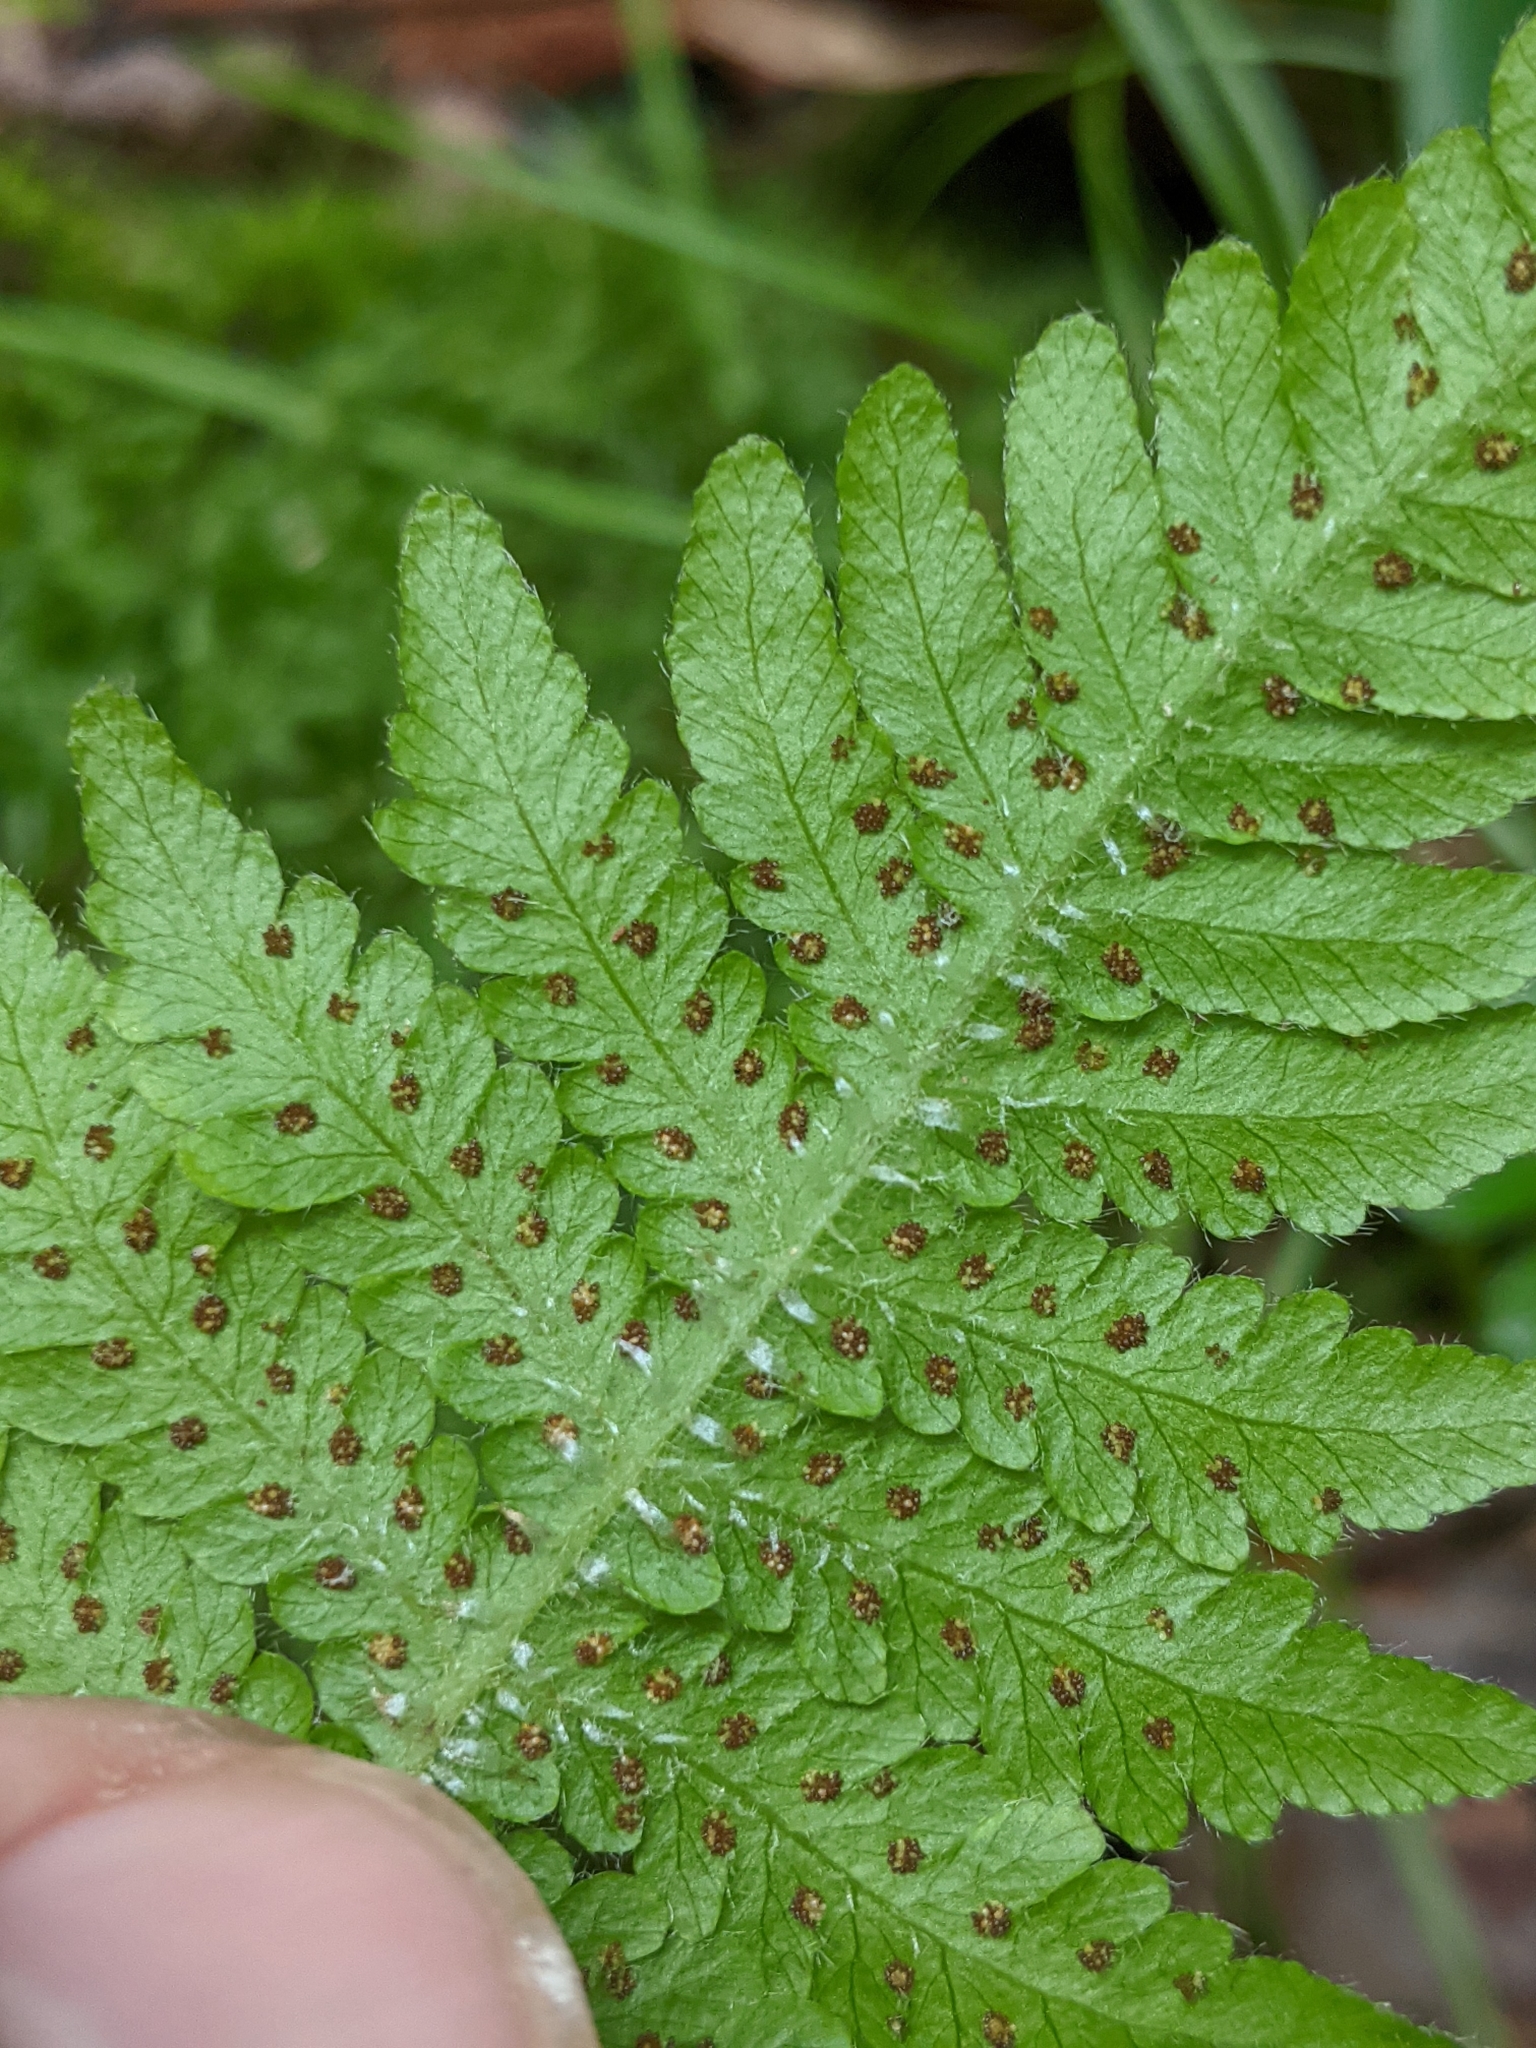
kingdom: Plantae
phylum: Tracheophyta
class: Polypodiopsida
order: Polypodiales
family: Thelypteridaceae
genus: Phegopteris
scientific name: Phegopteris connectilis
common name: Beech fern
